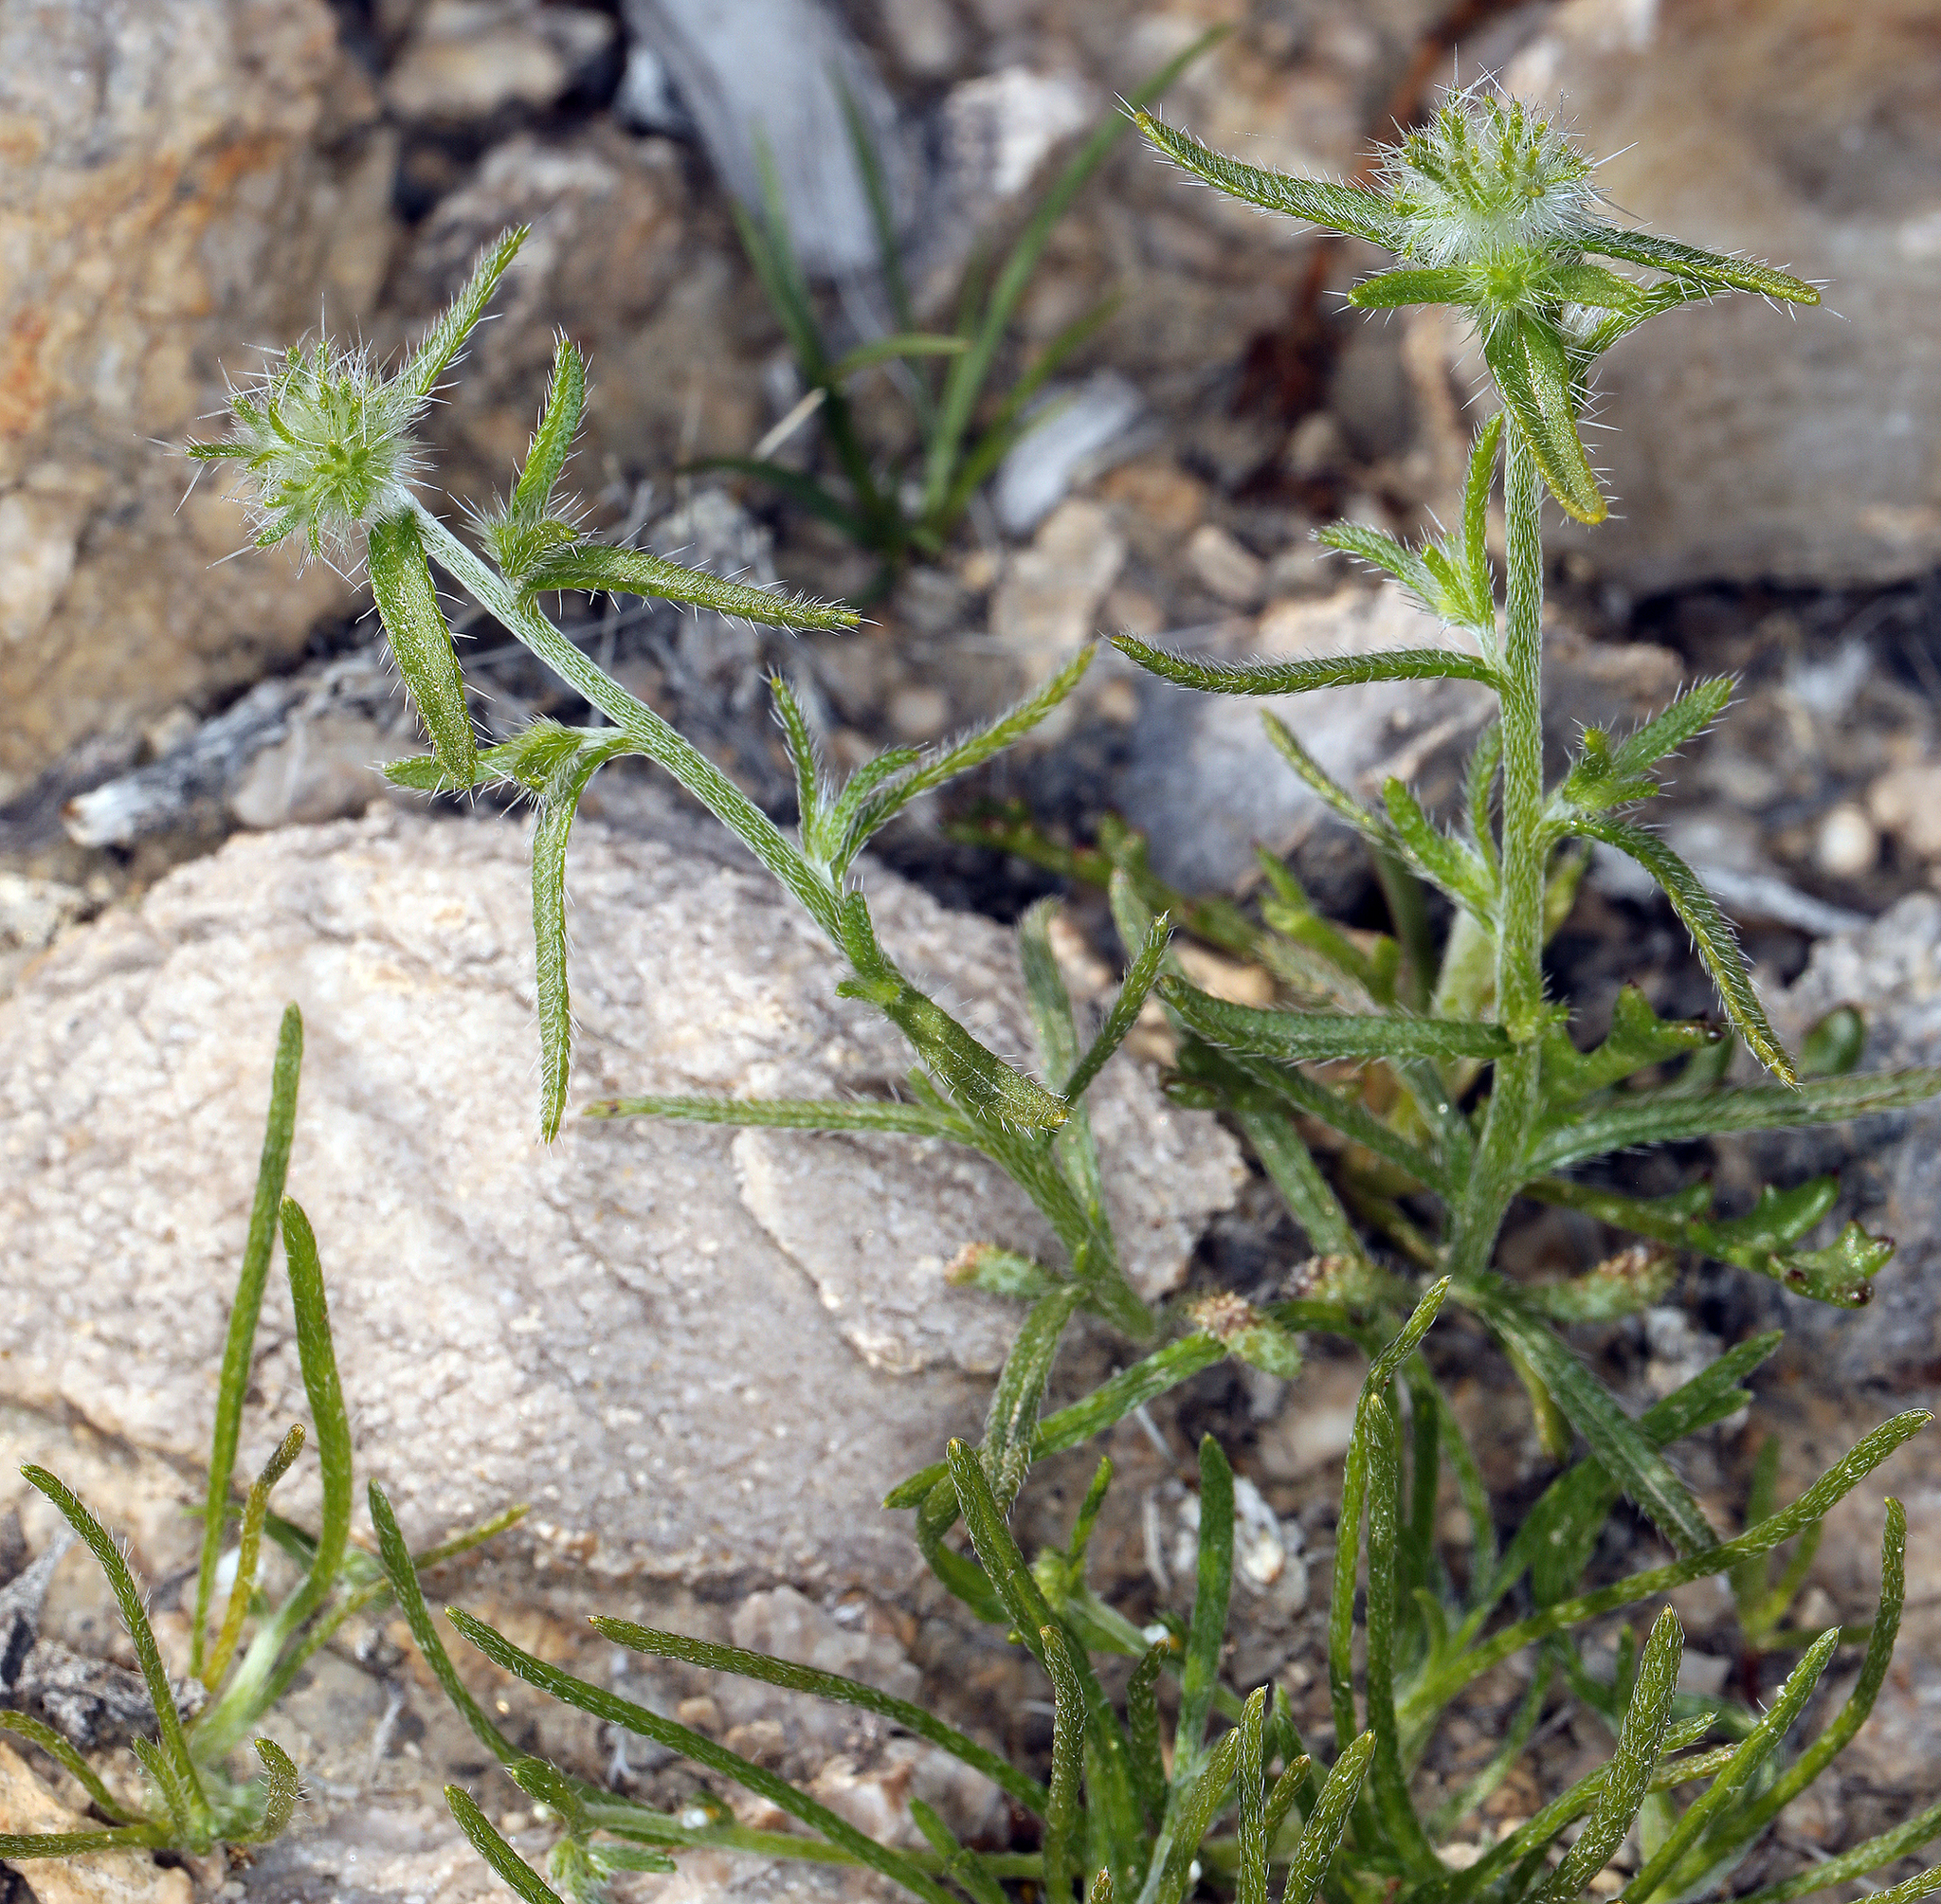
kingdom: Plantae
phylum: Tracheophyta
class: Magnoliopsida
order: Boraginales
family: Boraginaceae
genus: Cryptantha
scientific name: Cryptantha nevadensis
